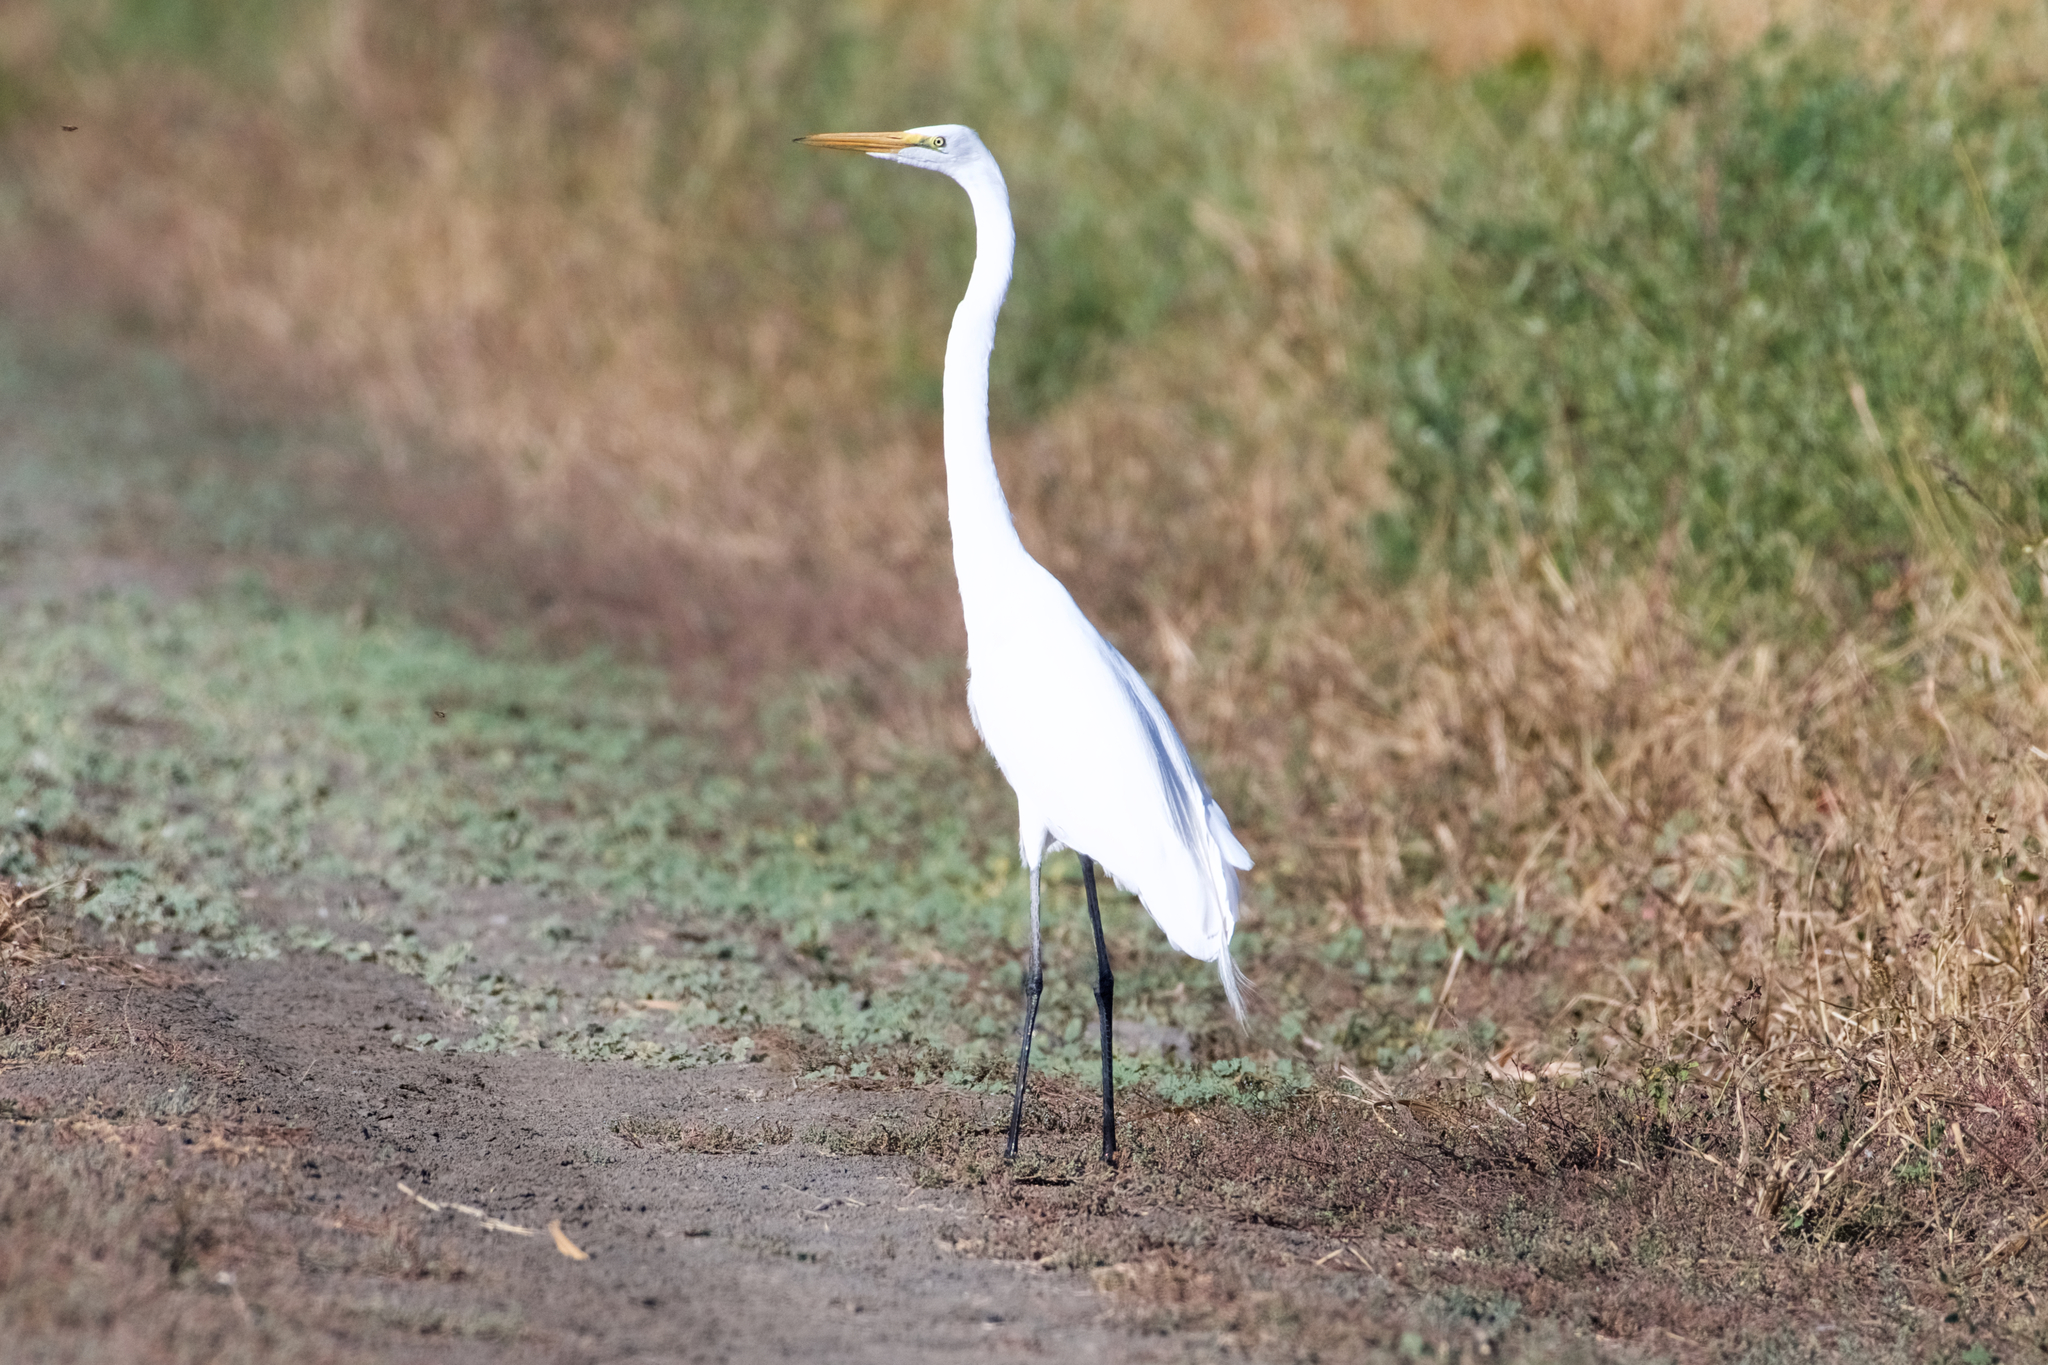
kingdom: Animalia
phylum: Chordata
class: Aves
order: Pelecaniformes
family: Ardeidae
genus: Ardea
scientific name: Ardea alba
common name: Great egret
